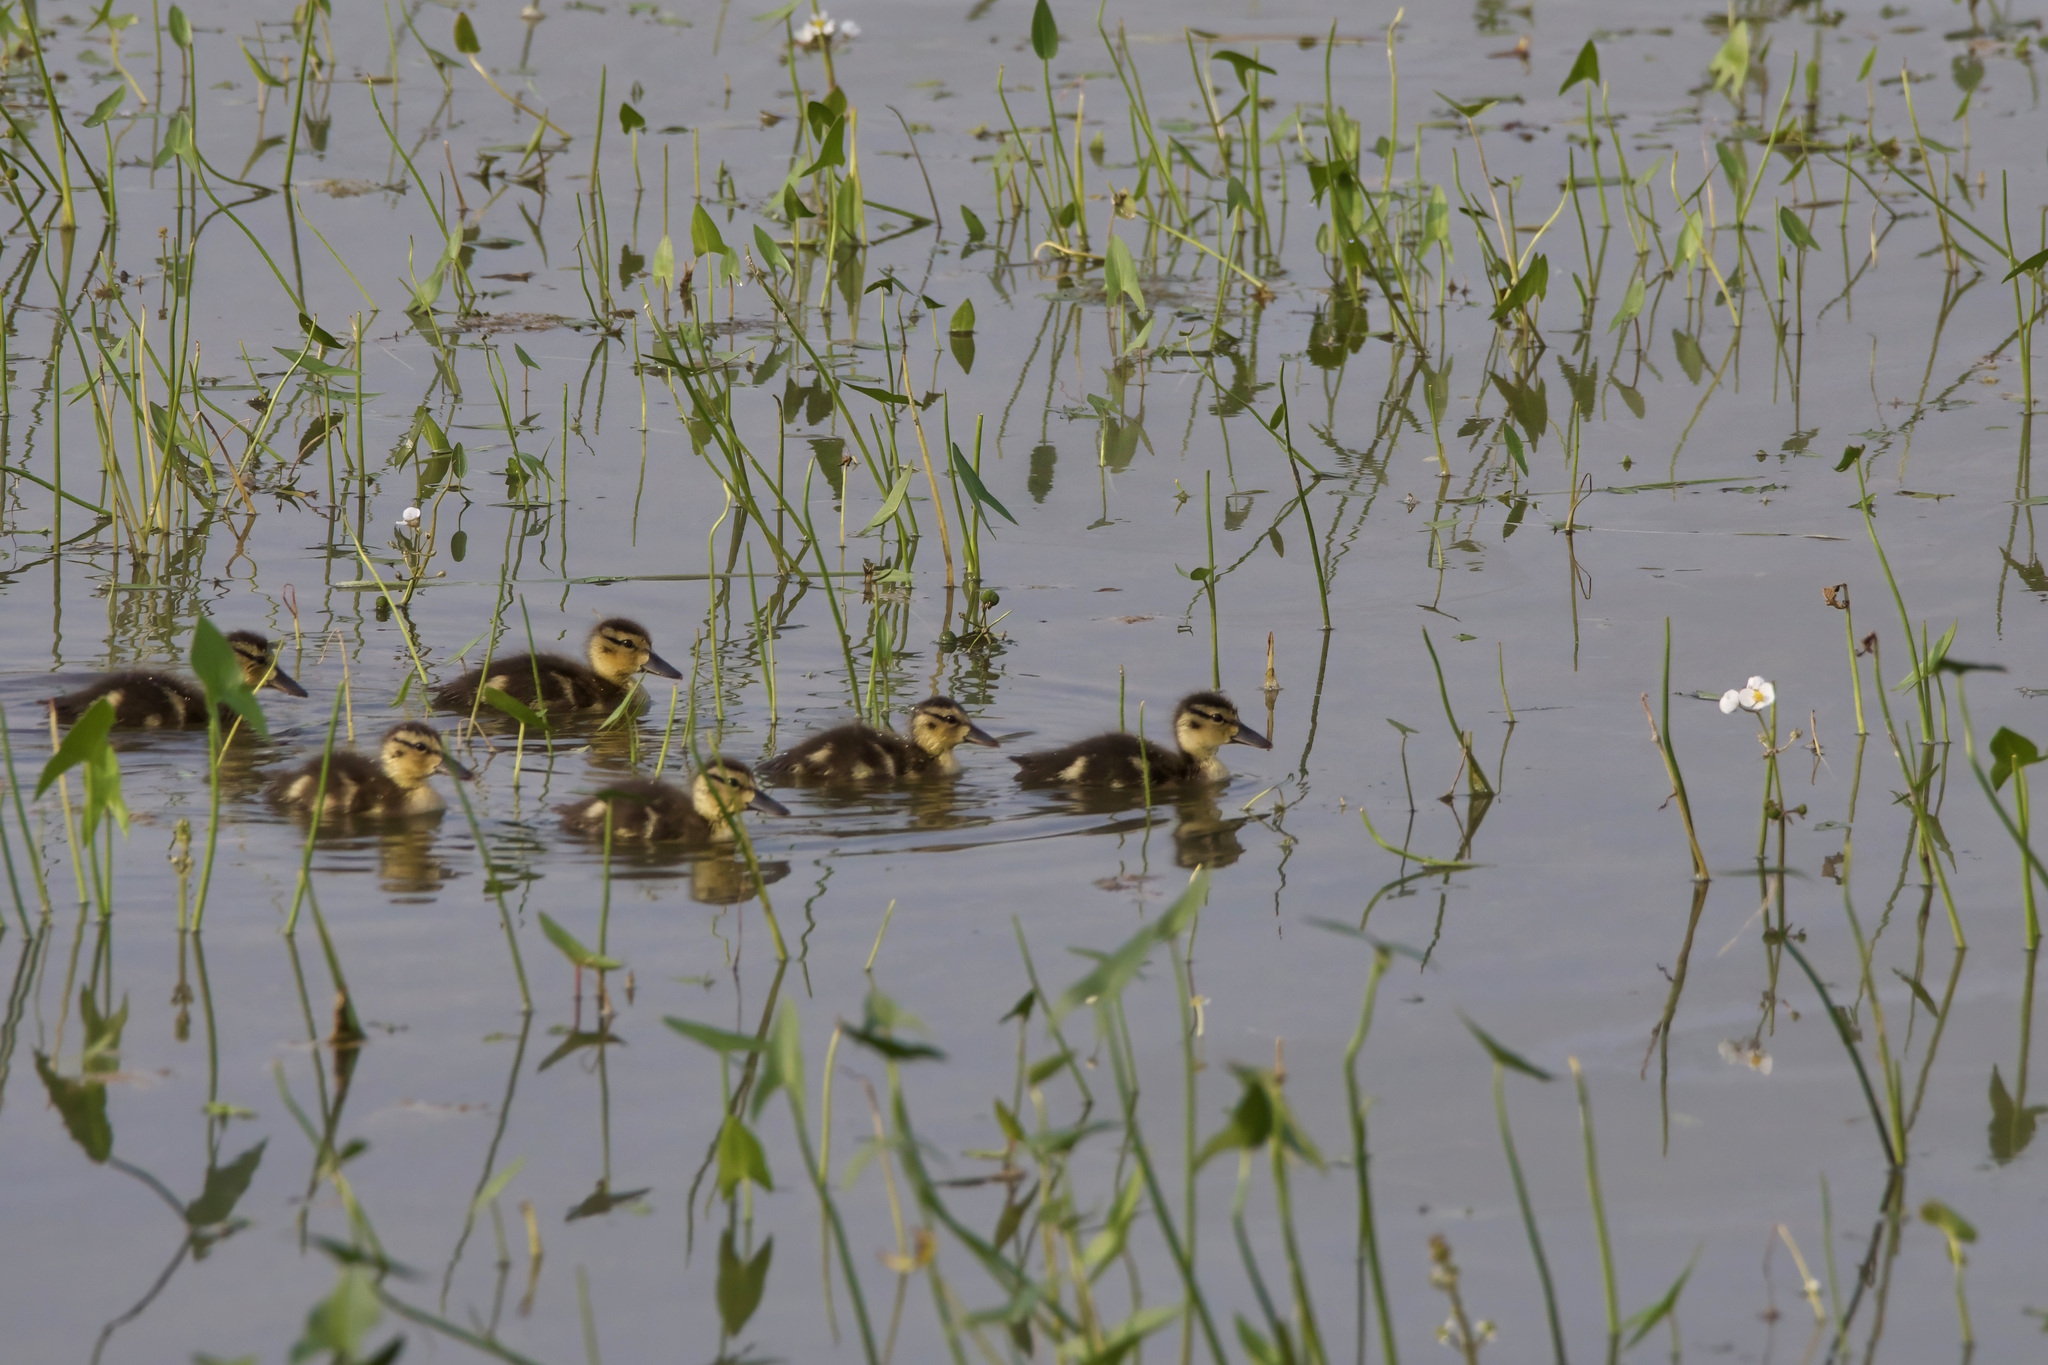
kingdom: Animalia
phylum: Chordata
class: Aves
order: Anseriformes
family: Anatidae
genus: Anas
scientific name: Anas platyrhynchos
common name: Mallard
